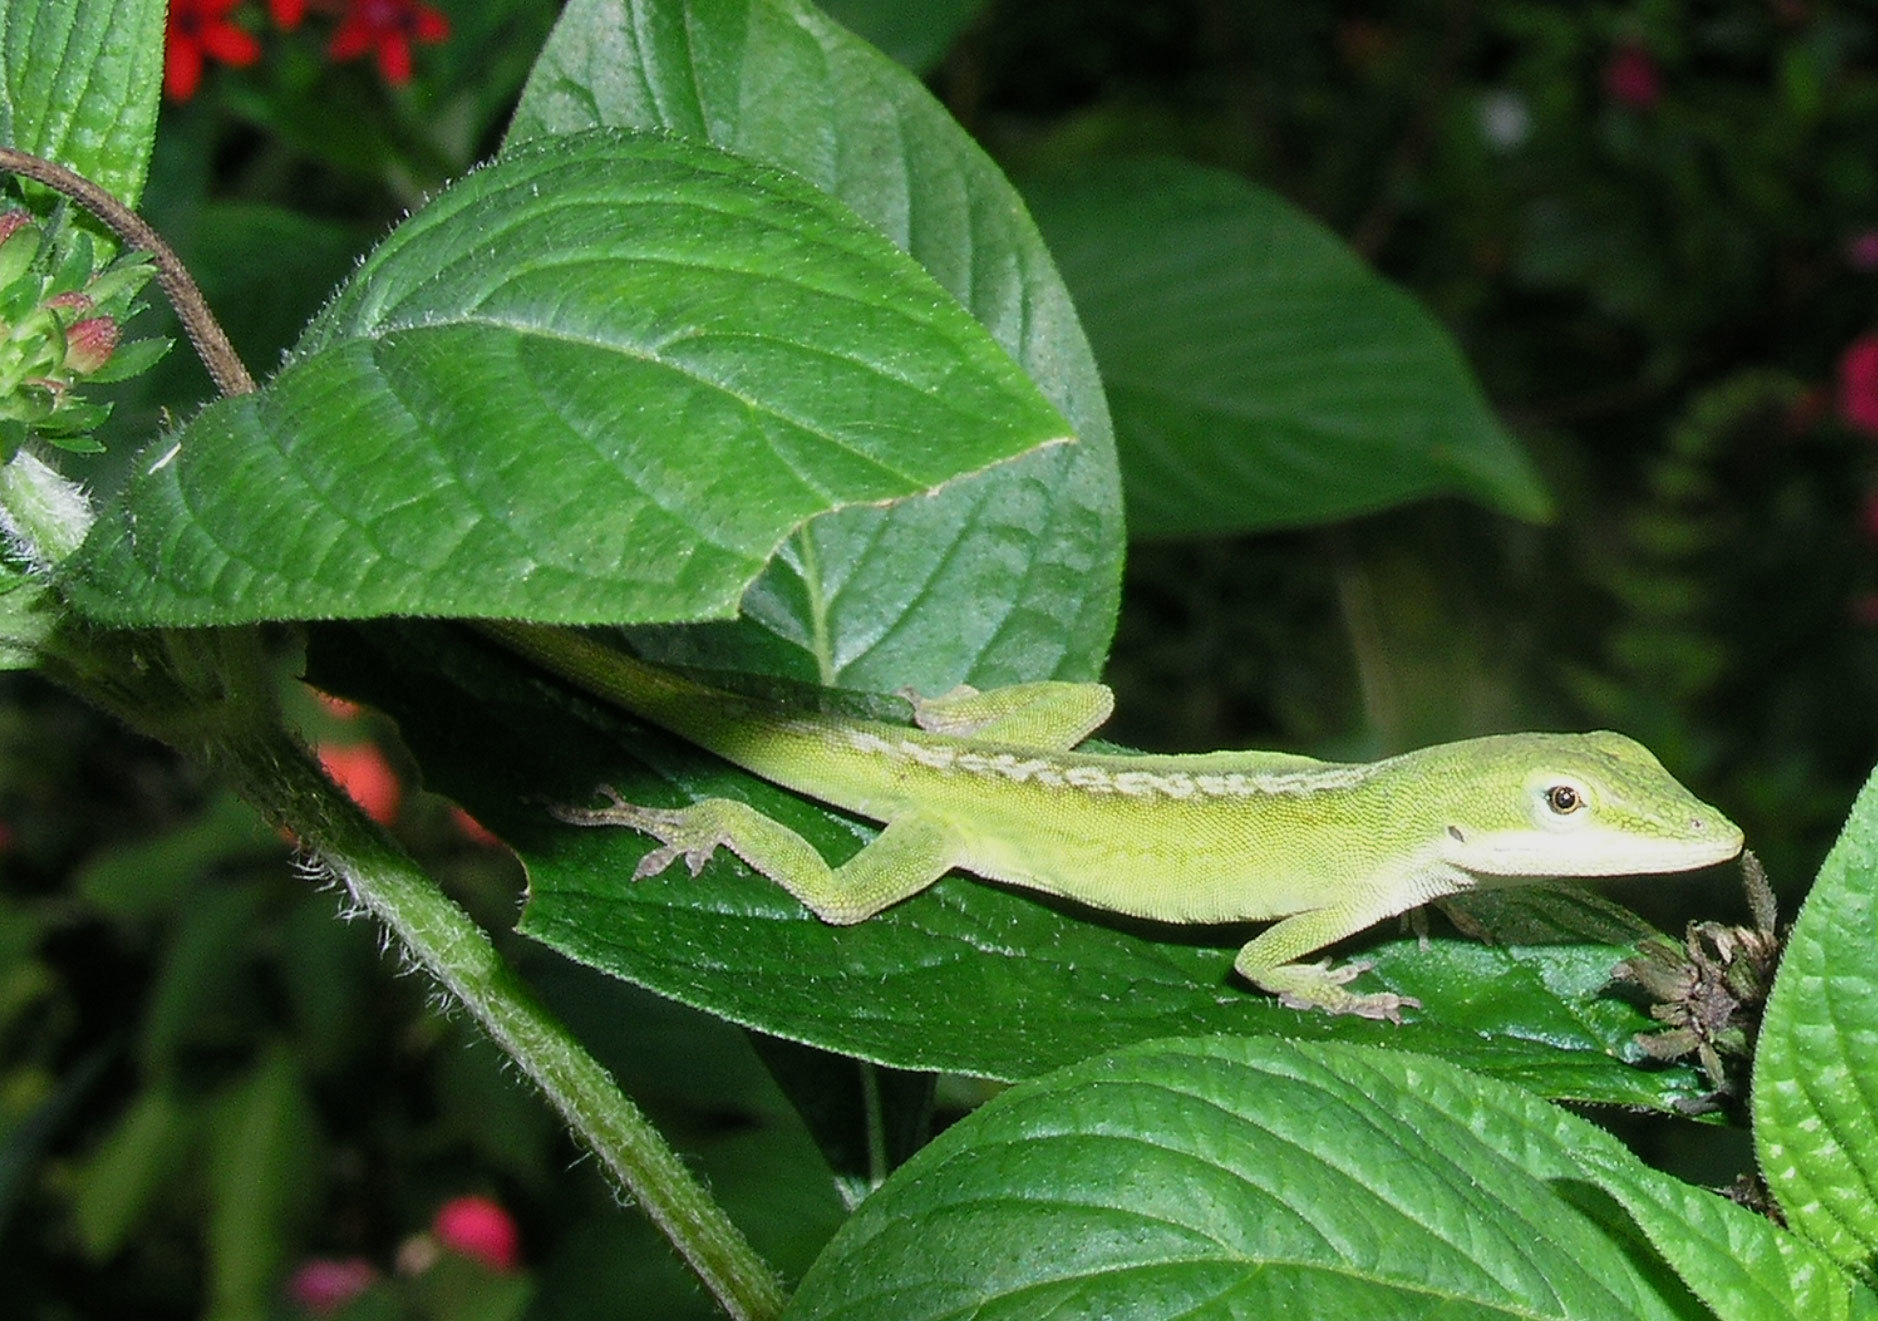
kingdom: Animalia
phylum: Chordata
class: Squamata
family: Dactyloidae
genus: Anolis
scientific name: Anolis carolinensis
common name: Green anole
